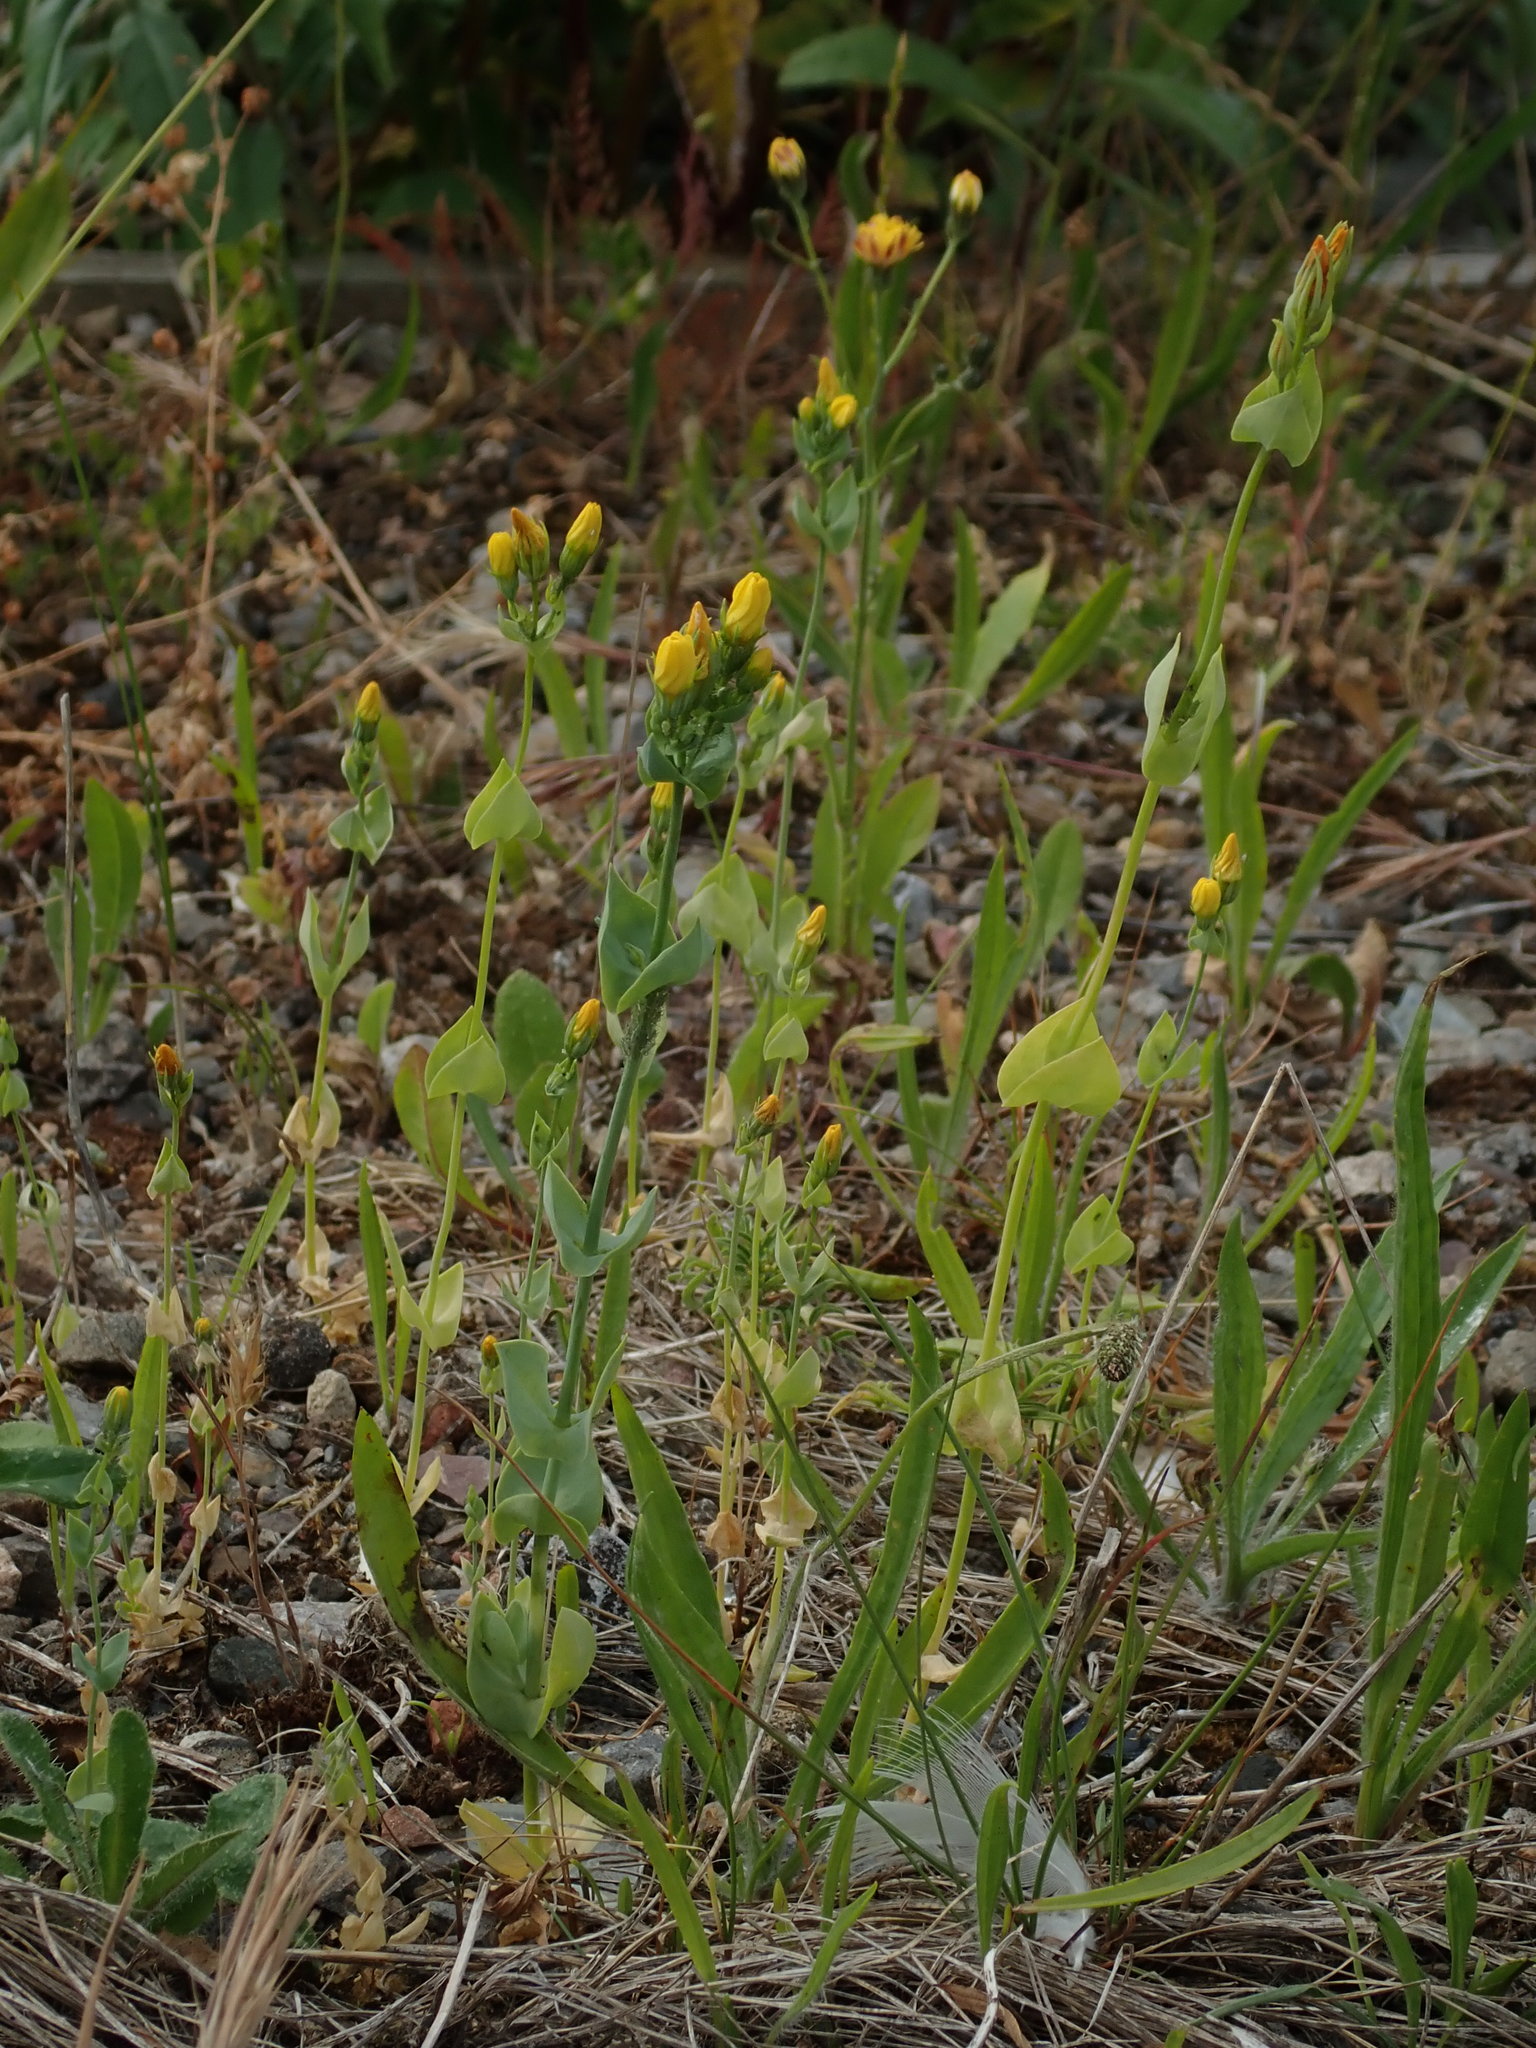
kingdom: Plantae
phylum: Tracheophyta
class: Magnoliopsida
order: Gentianales
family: Gentianaceae
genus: Blackstonia
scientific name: Blackstonia perfoliata
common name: Yellow-wort
